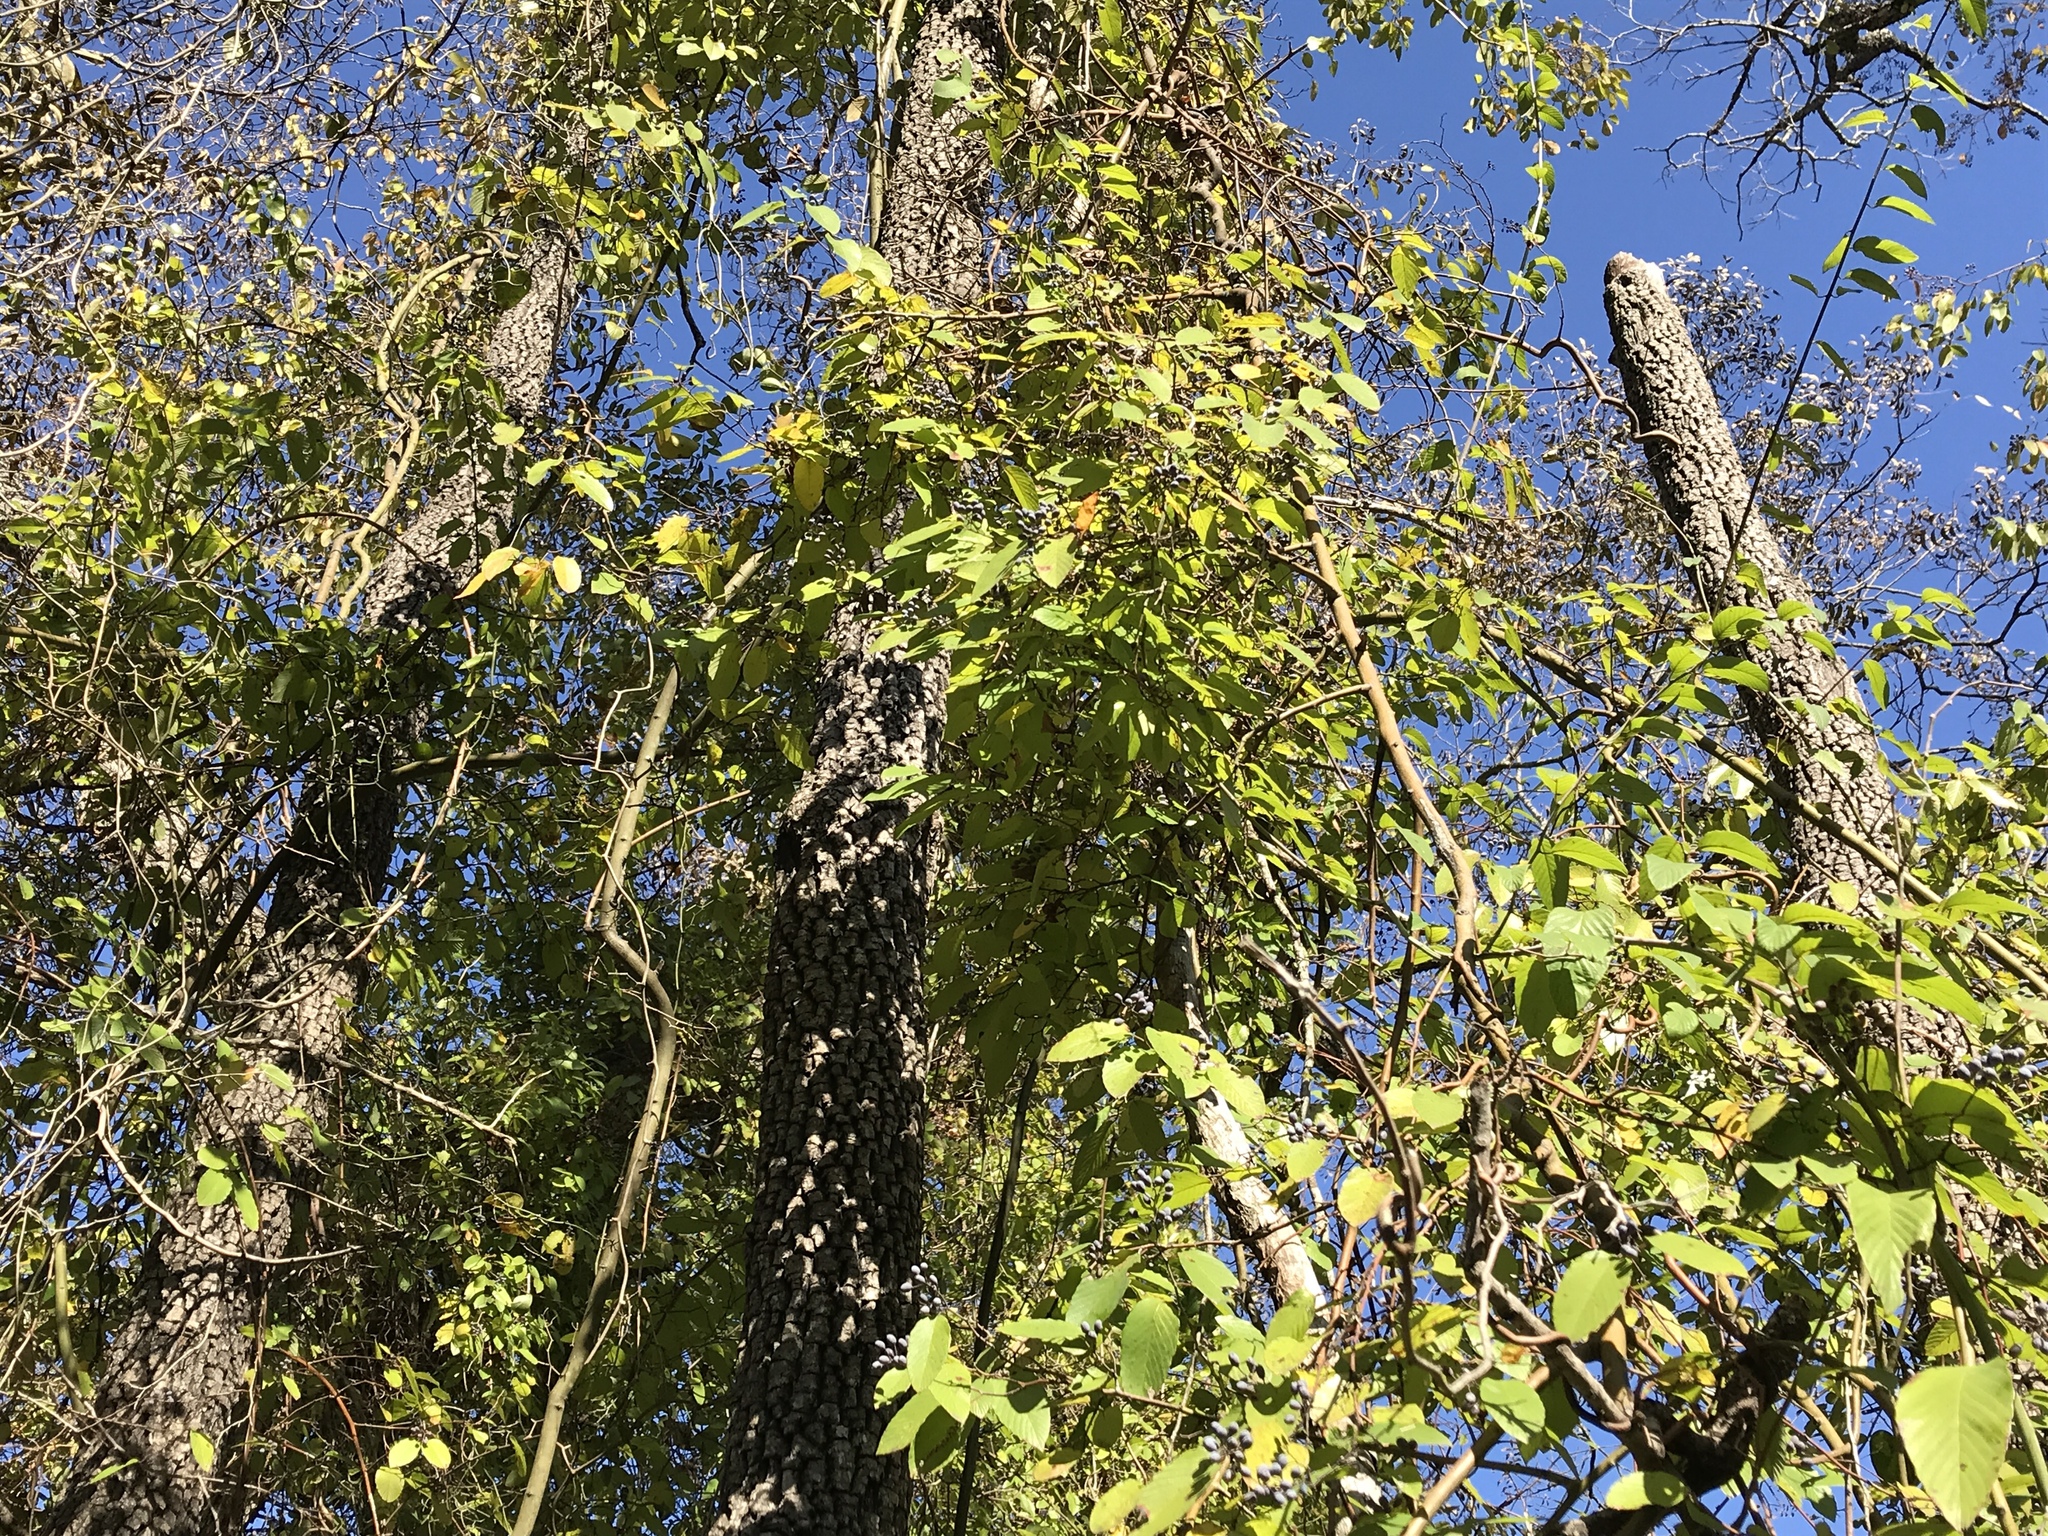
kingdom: Plantae
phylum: Tracheophyta
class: Magnoliopsida
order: Rosales
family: Rhamnaceae
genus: Berchemia
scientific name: Berchemia scandens
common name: Supplejack
